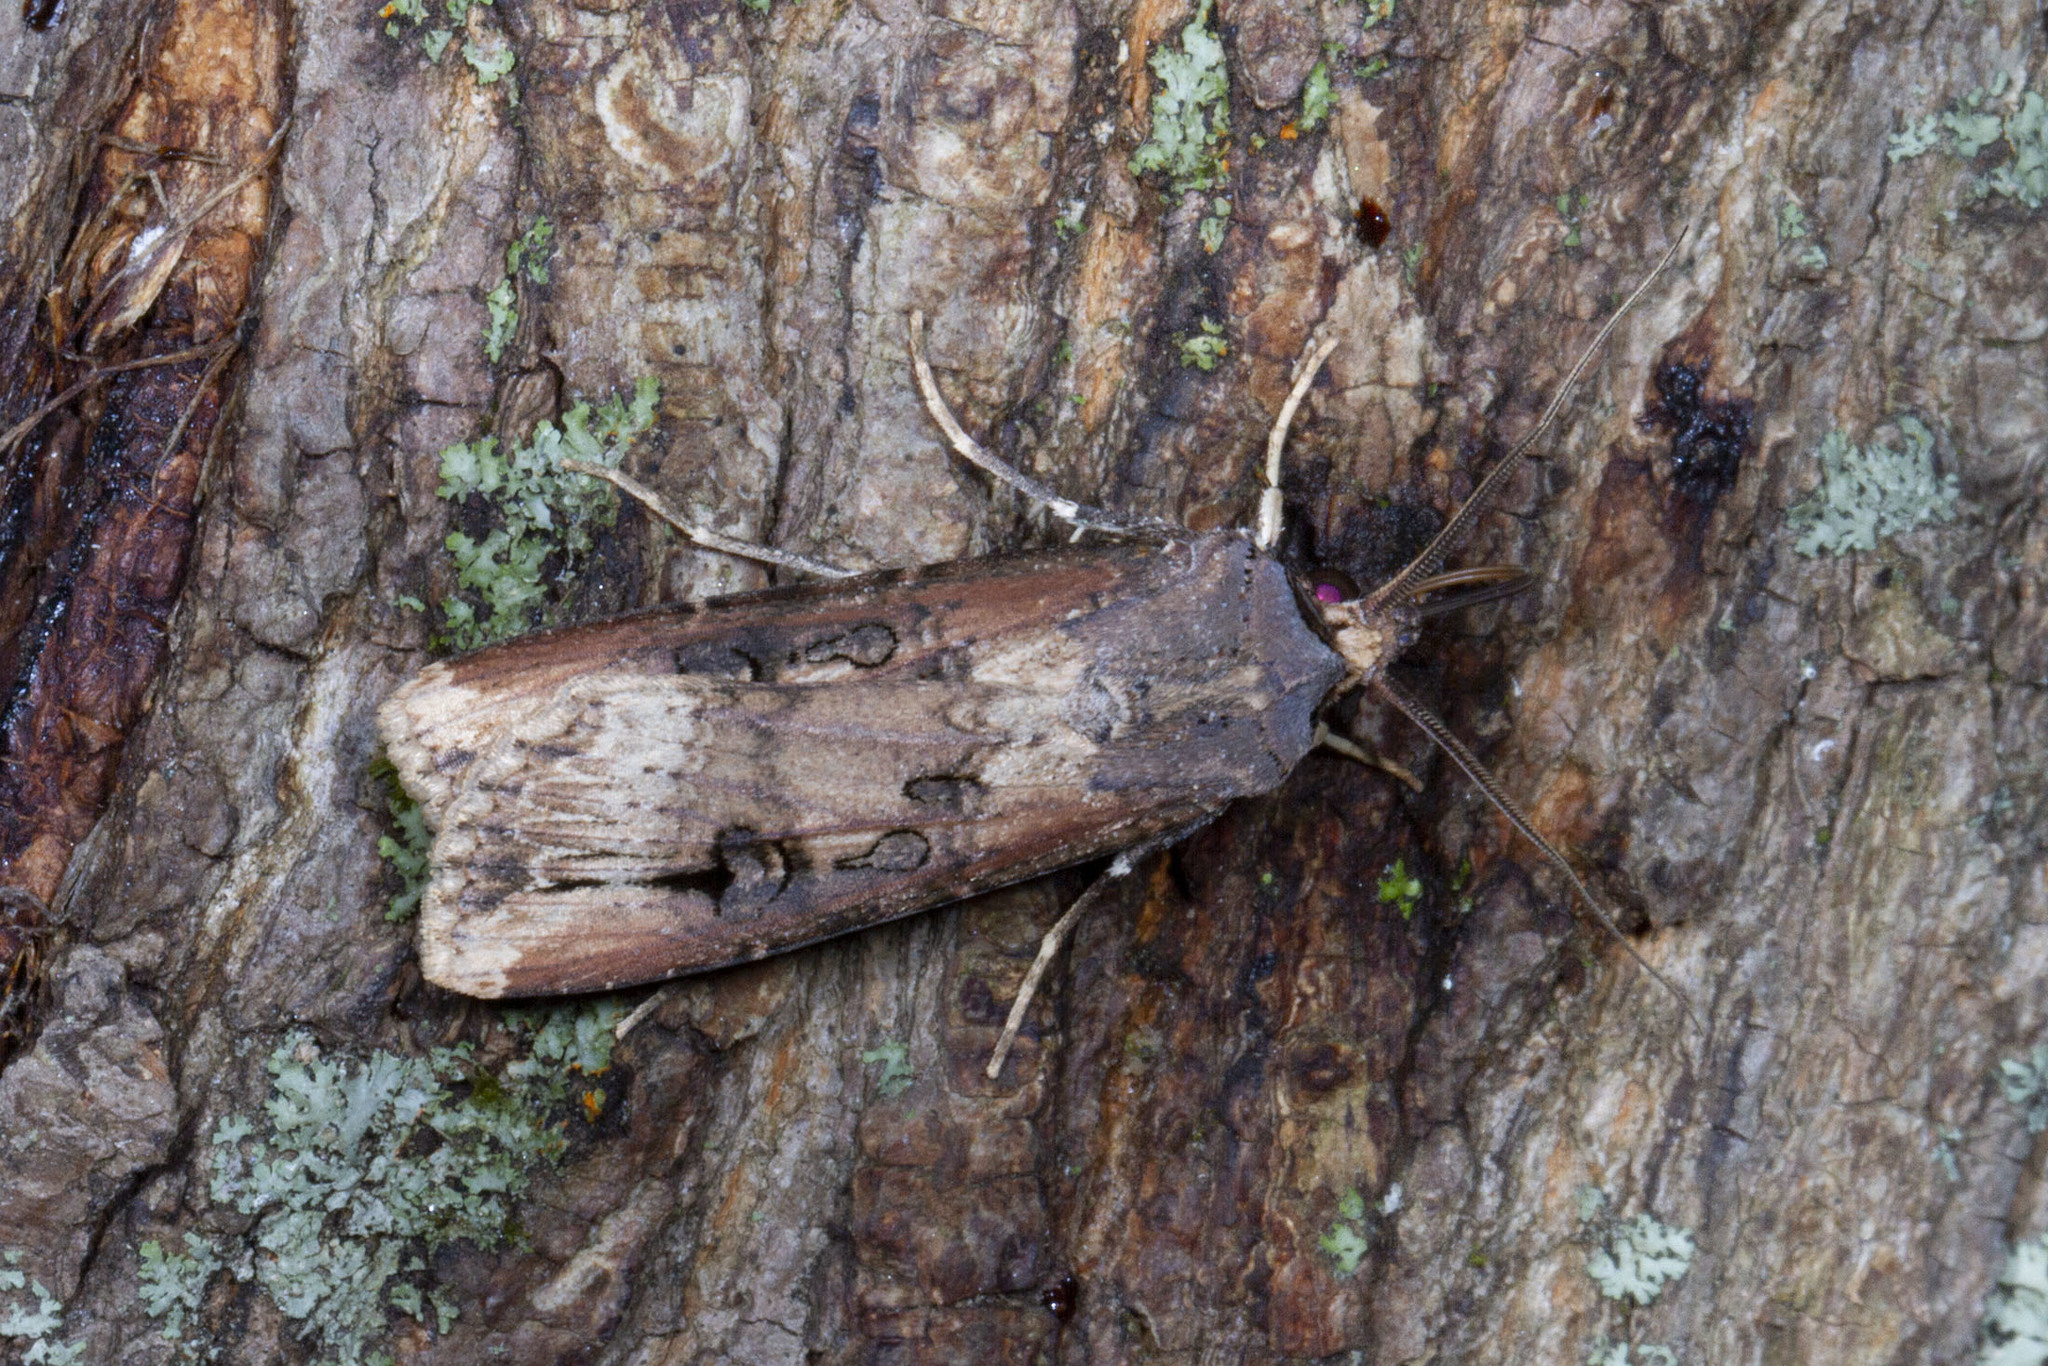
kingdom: Animalia
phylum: Arthropoda
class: Insecta
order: Lepidoptera
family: Noctuidae
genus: Agrotis
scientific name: Agrotis ipsilon
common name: Dark sword-grass
